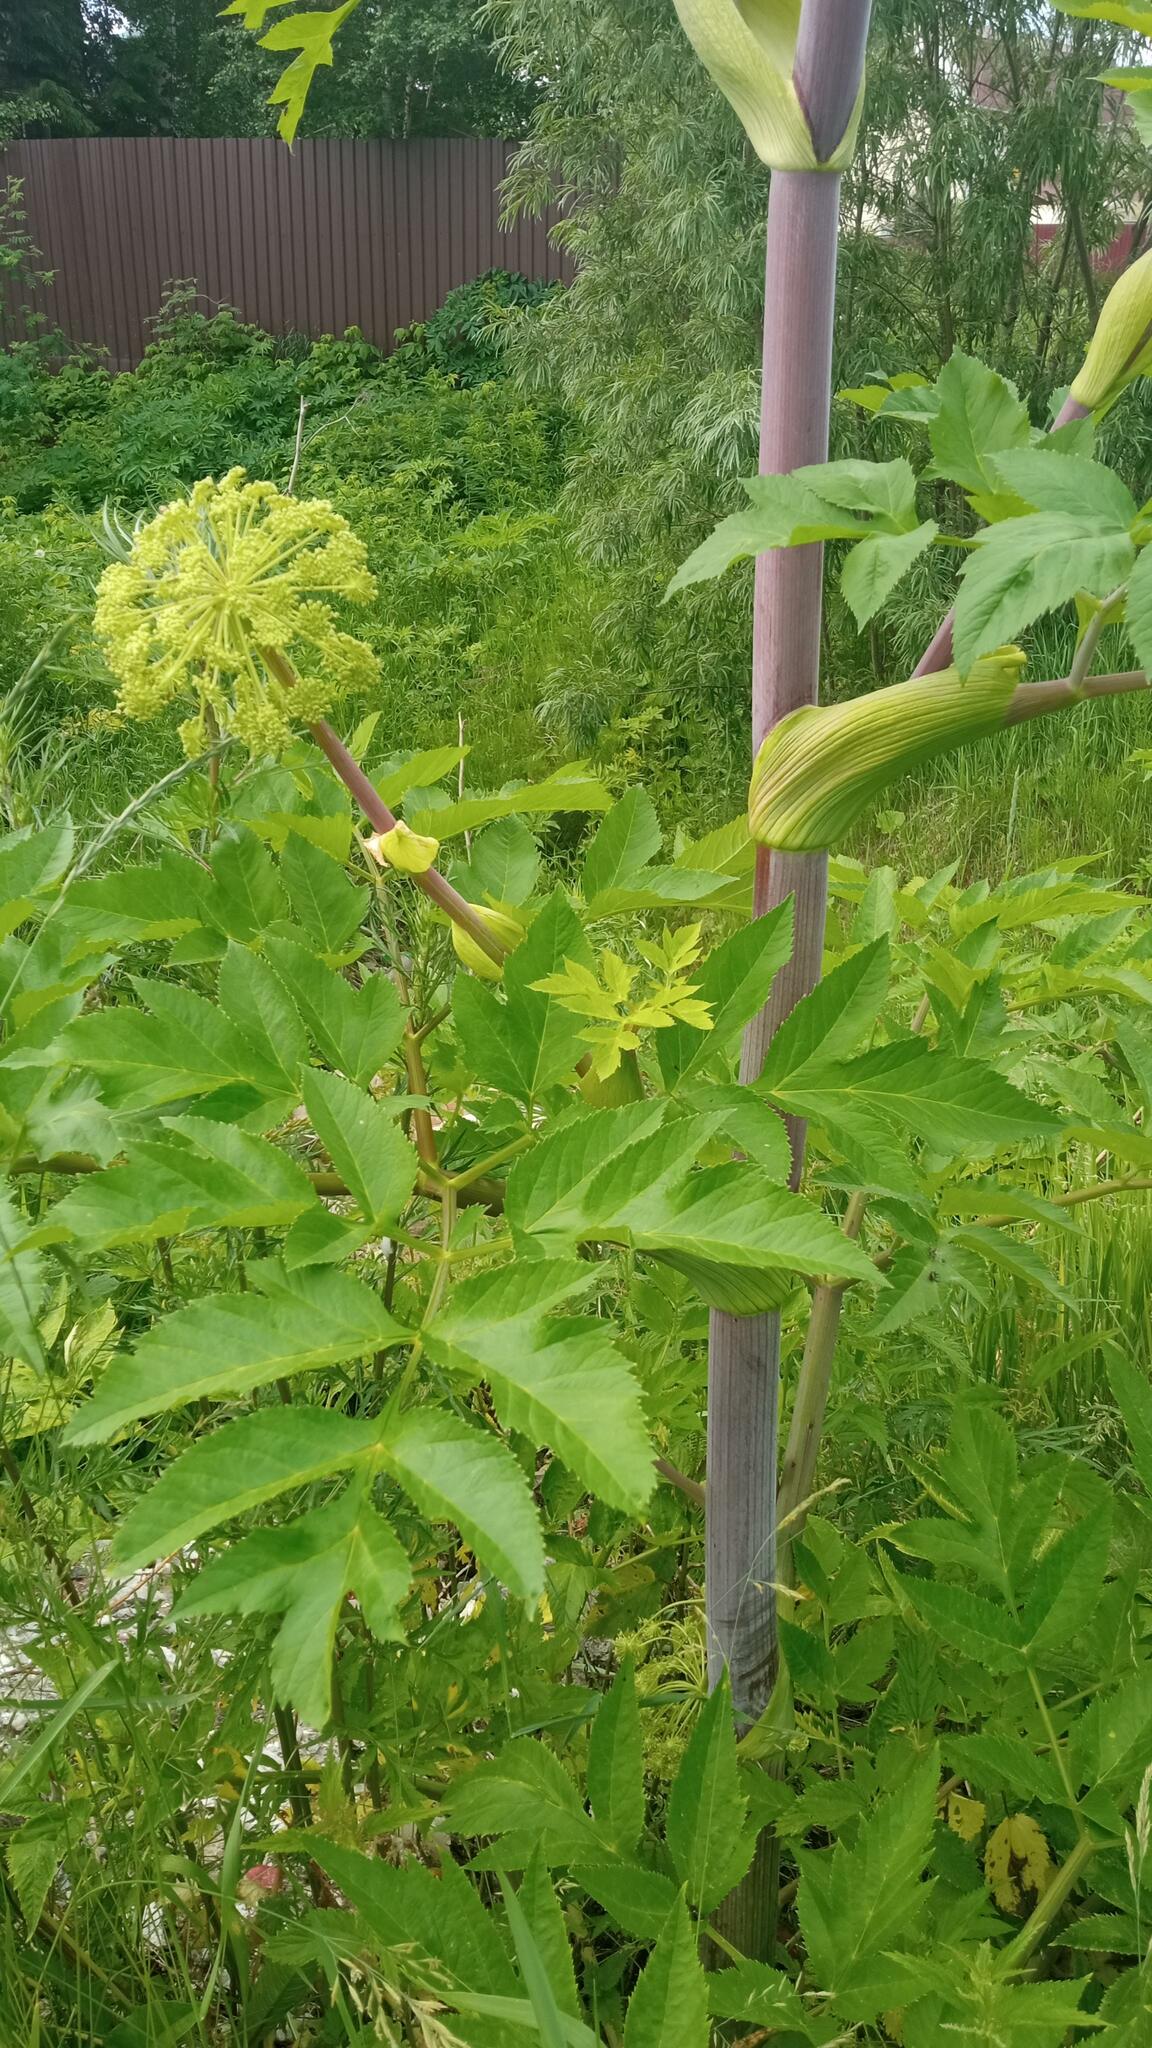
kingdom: Plantae
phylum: Tracheophyta
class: Magnoliopsida
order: Apiales
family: Apiaceae
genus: Angelica
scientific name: Angelica decurrens
